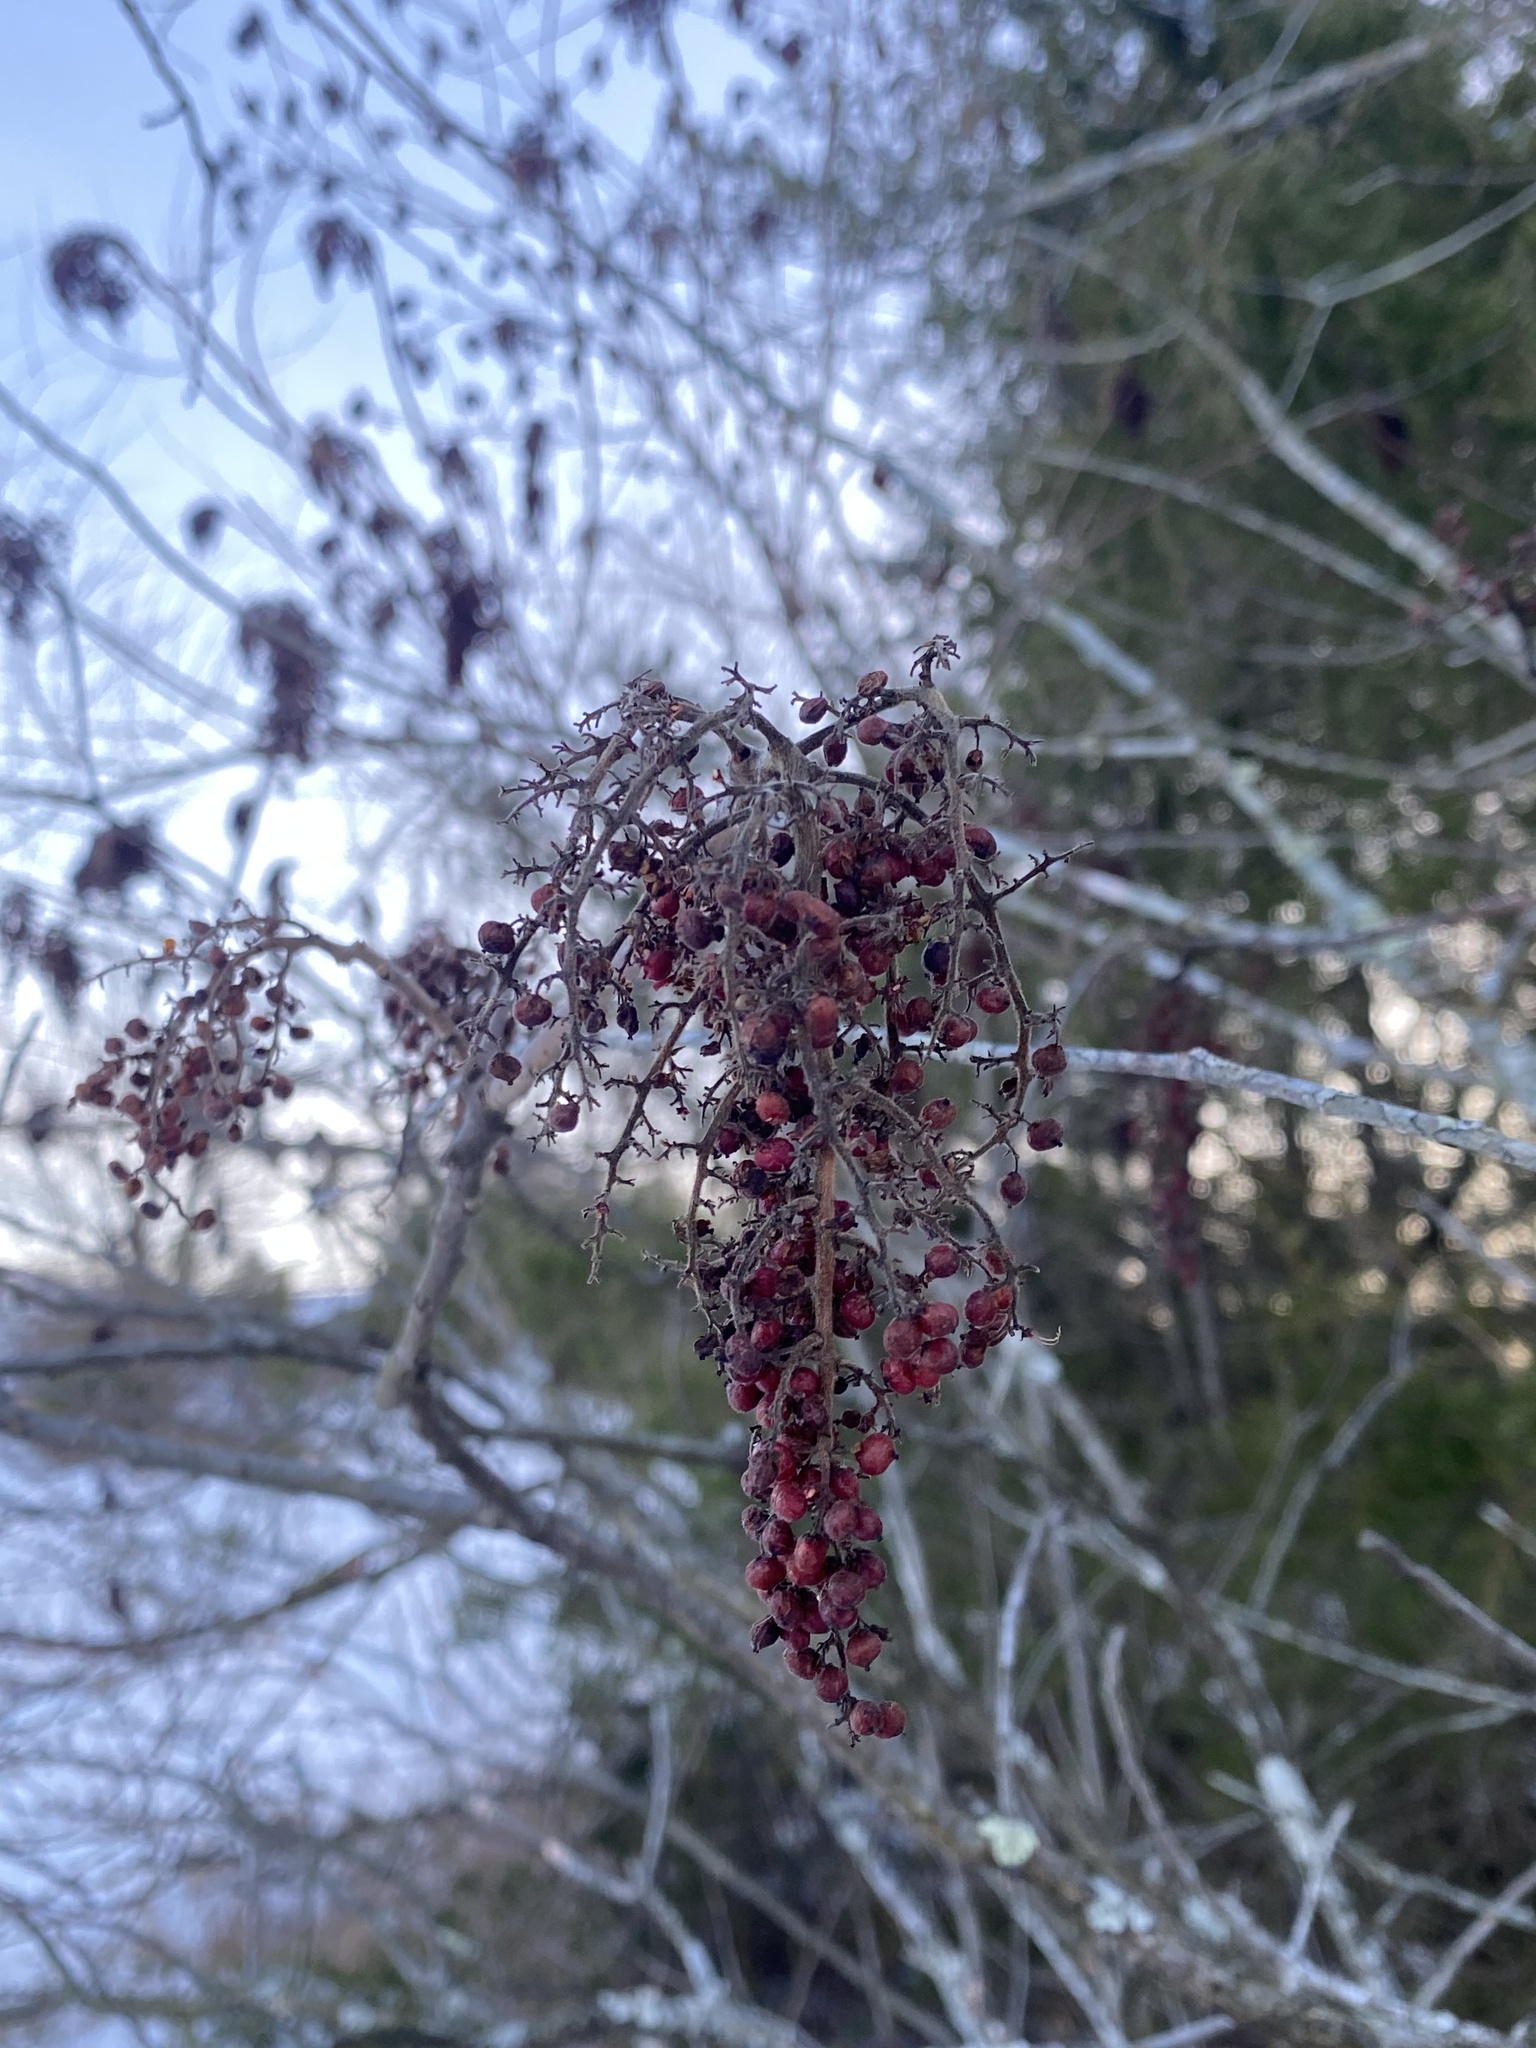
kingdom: Plantae
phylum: Tracheophyta
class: Magnoliopsida
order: Sapindales
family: Anacardiaceae
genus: Rhus
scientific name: Rhus copallina
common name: Shining sumac
